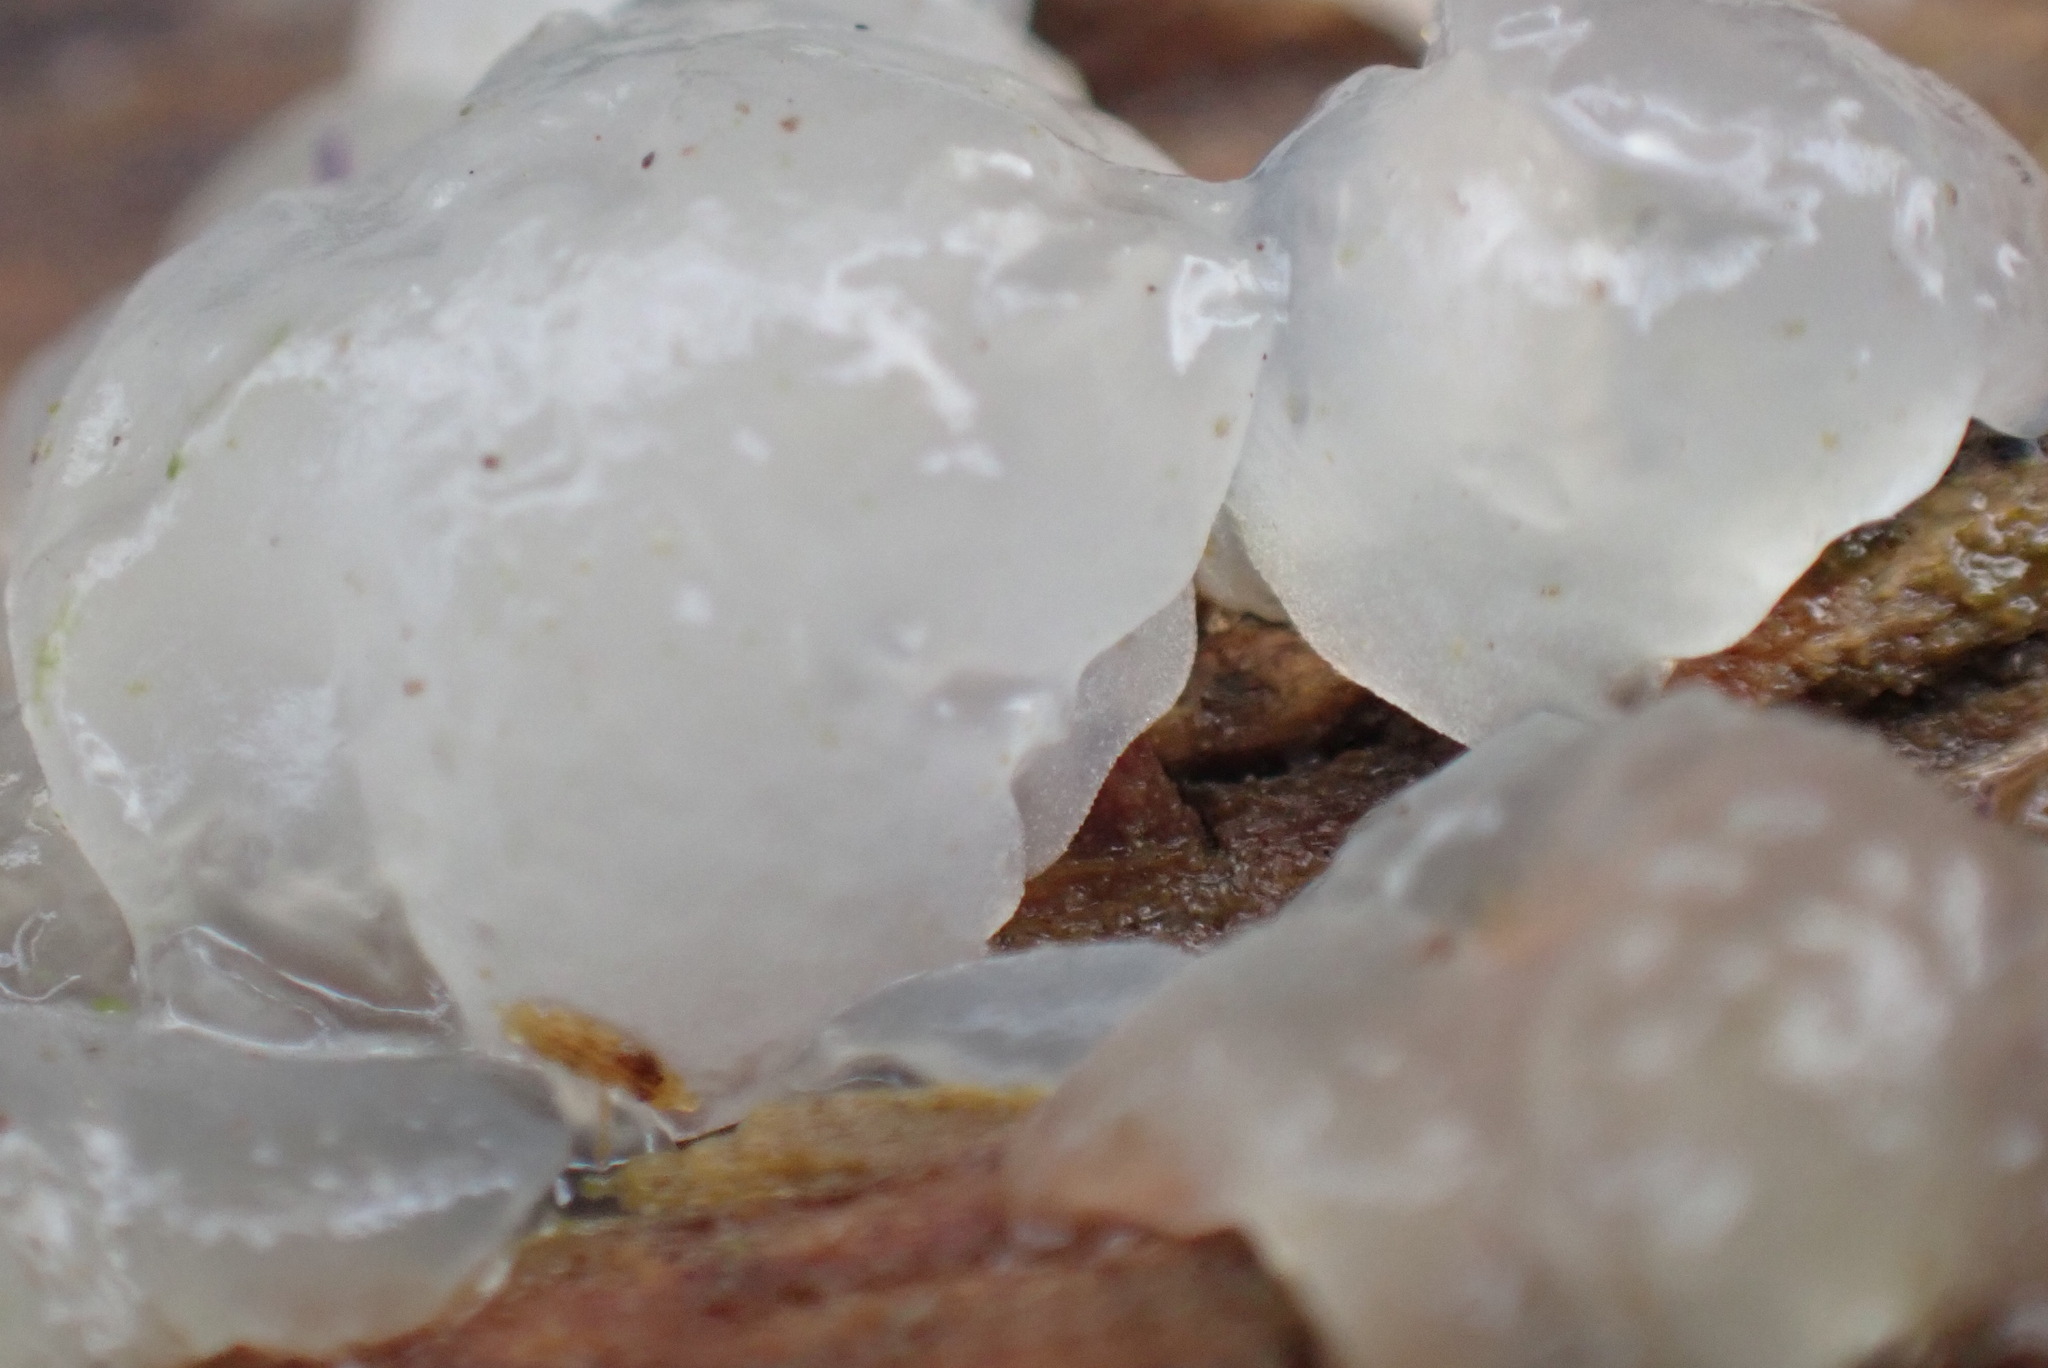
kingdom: Fungi
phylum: Basidiomycota
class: Agaricomycetes
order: Auriculariales
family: Hyaloriaceae
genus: Myxarium
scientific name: Myxarium nucleatum
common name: Crystal brain fungus
